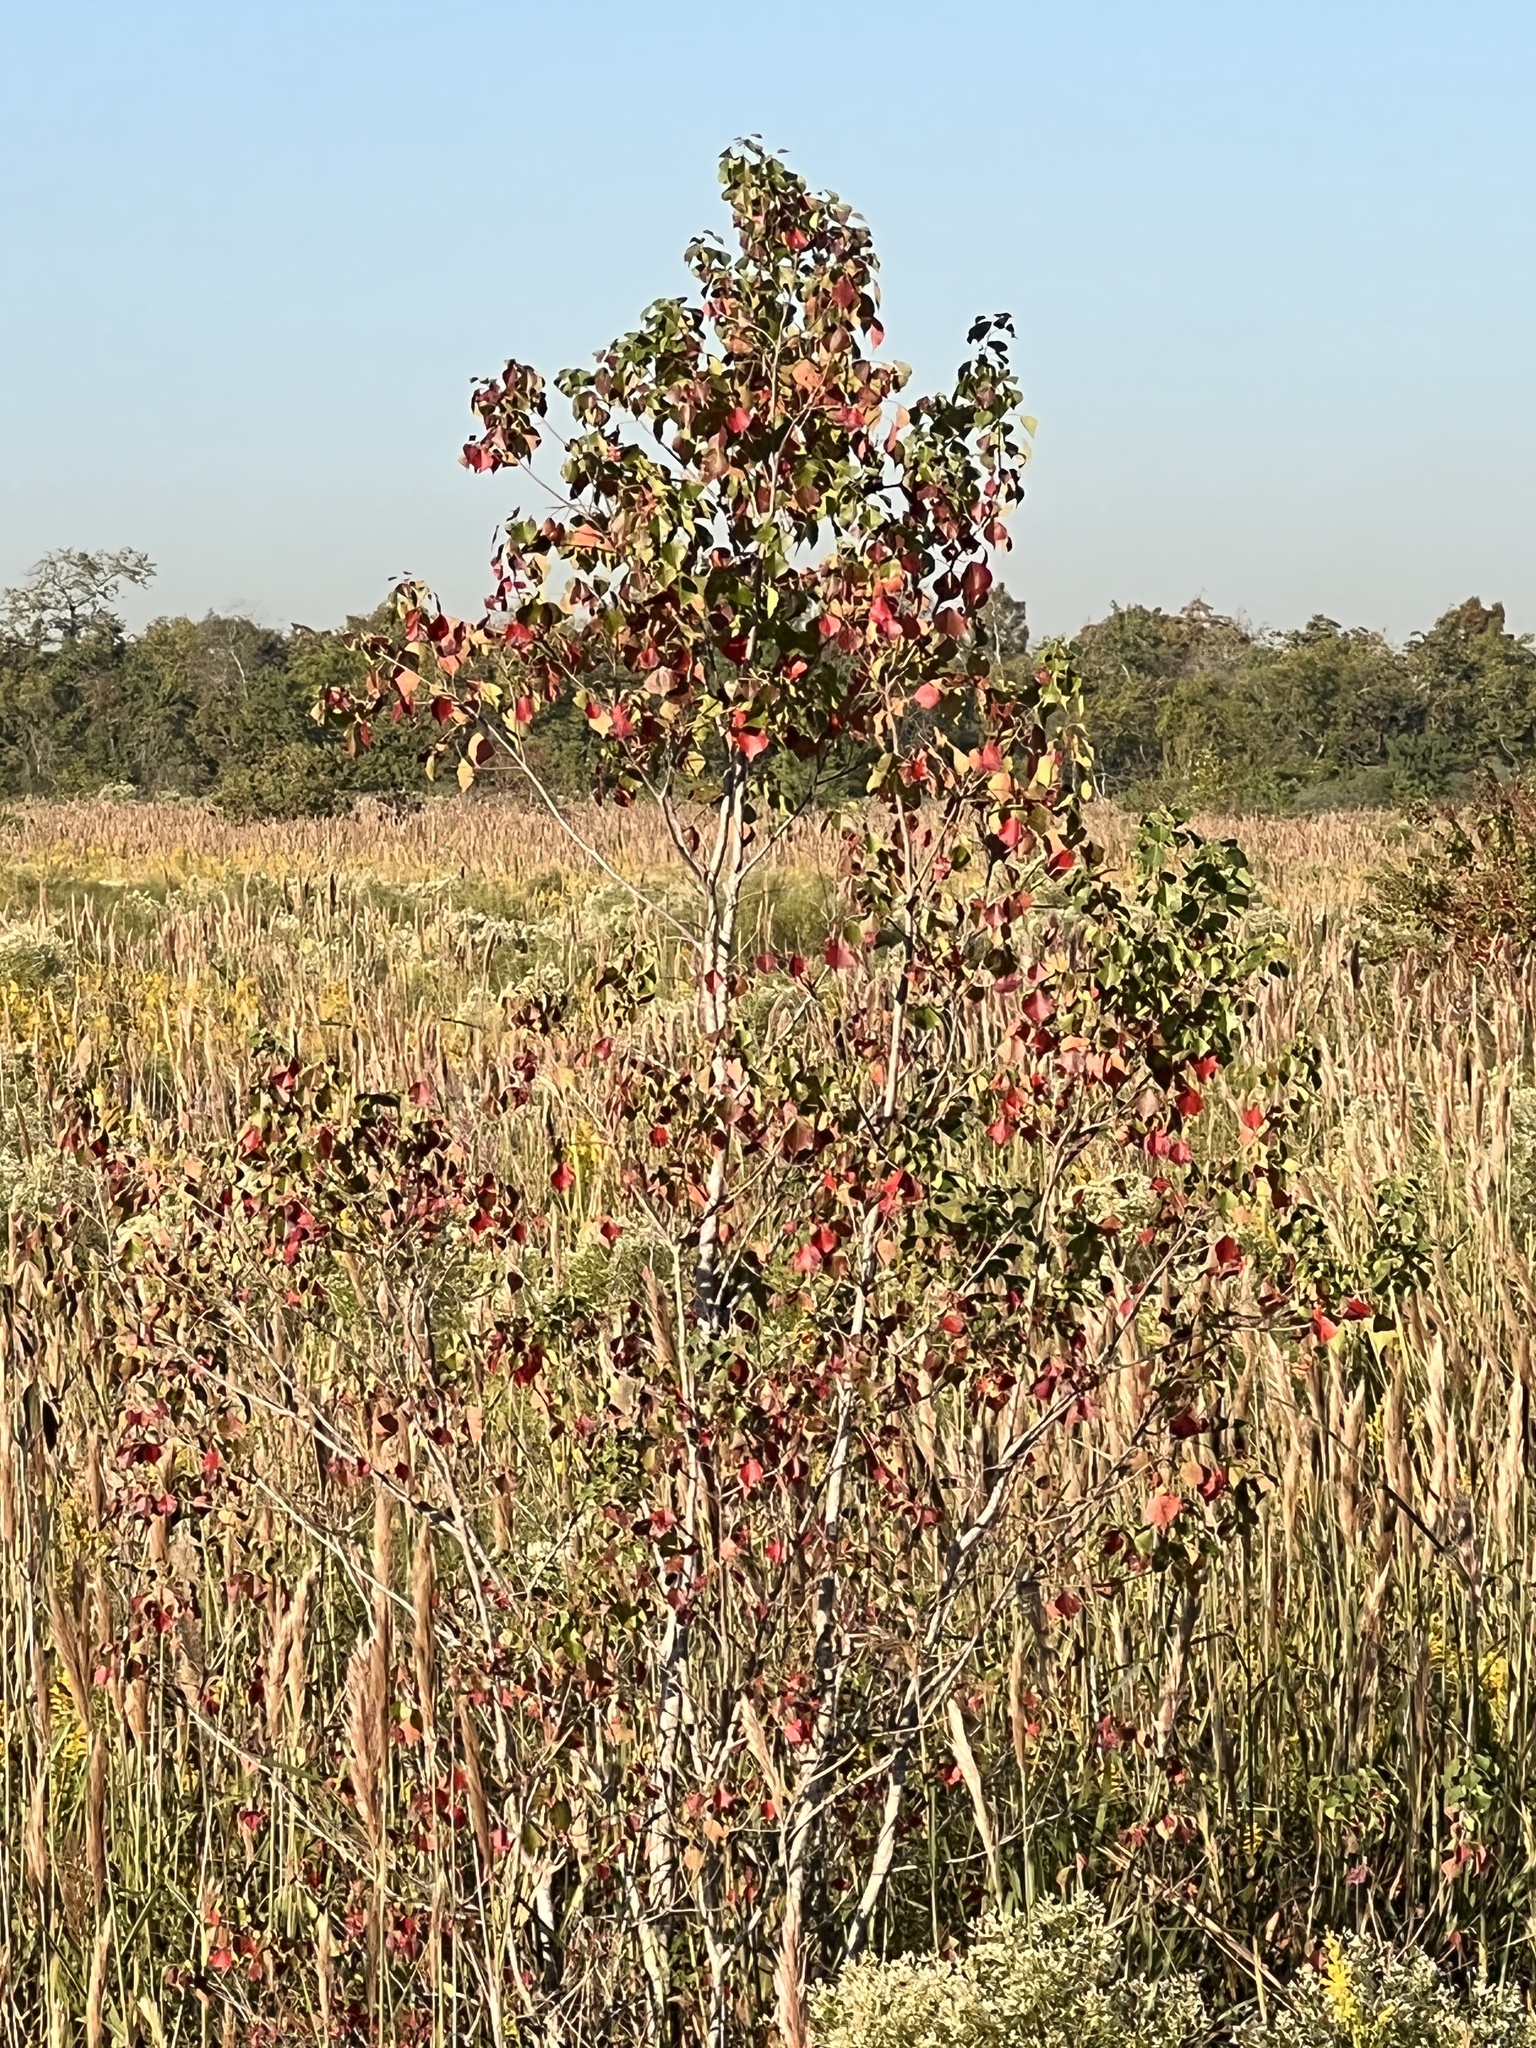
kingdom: Plantae
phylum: Tracheophyta
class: Magnoliopsida
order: Malpighiales
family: Euphorbiaceae
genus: Triadica
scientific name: Triadica sebifera
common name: Chinese tallow
